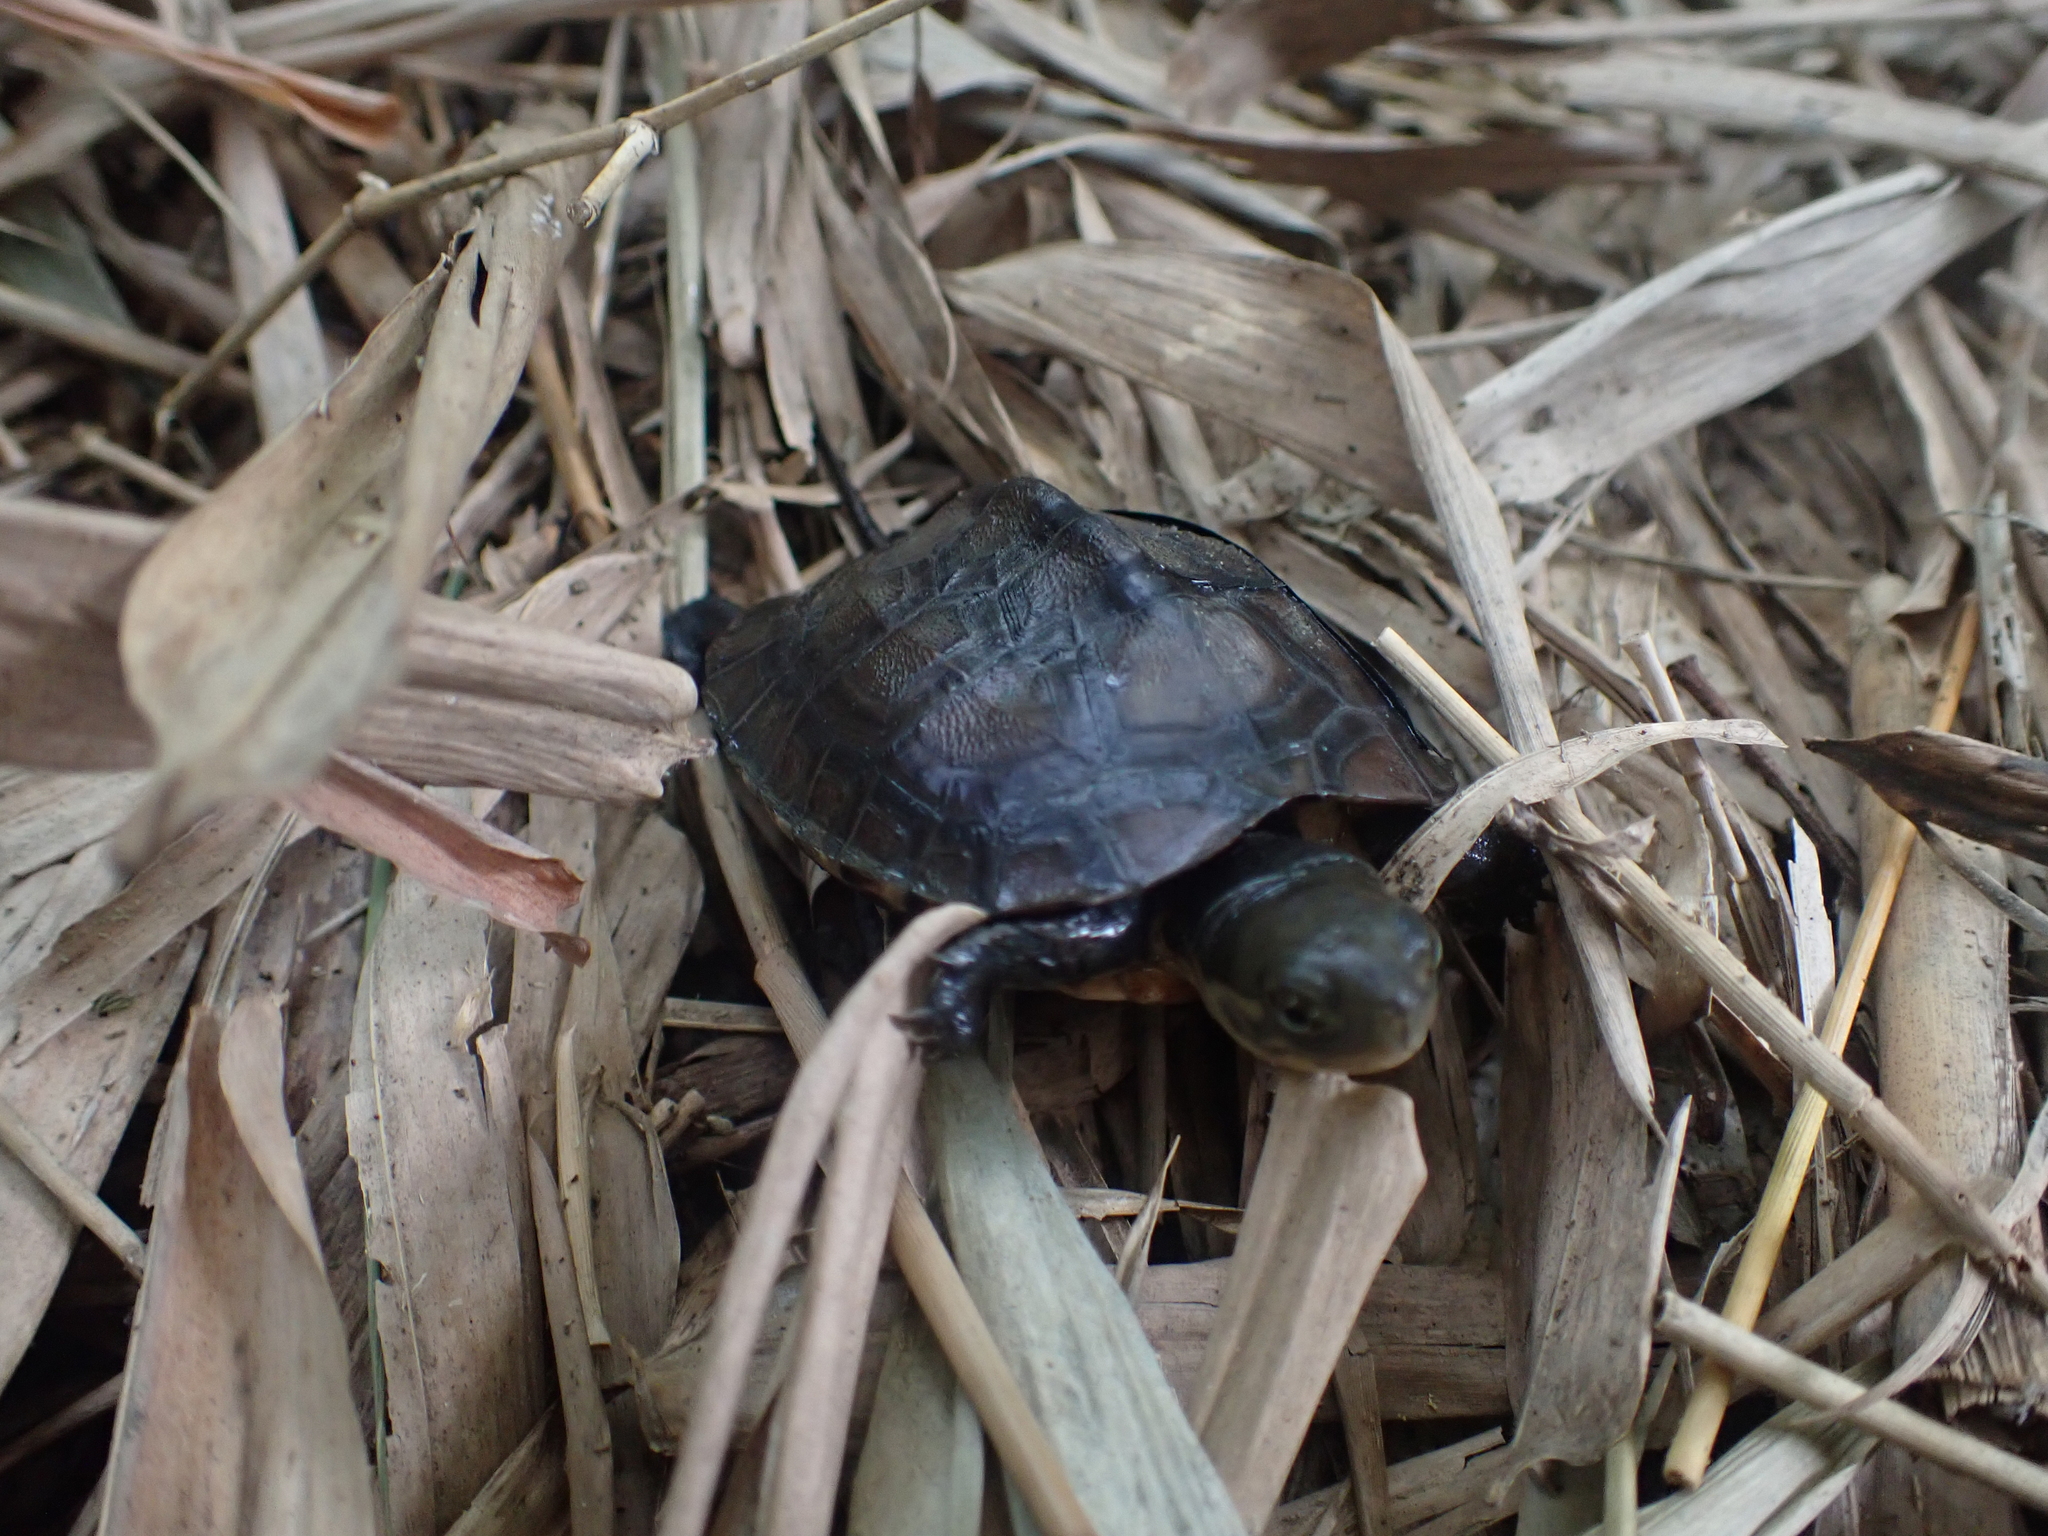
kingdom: Animalia
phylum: Chordata
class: Testudines
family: Geoemydidae
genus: Mauremys
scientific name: Mauremys mutica
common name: Yellow pond turtle
